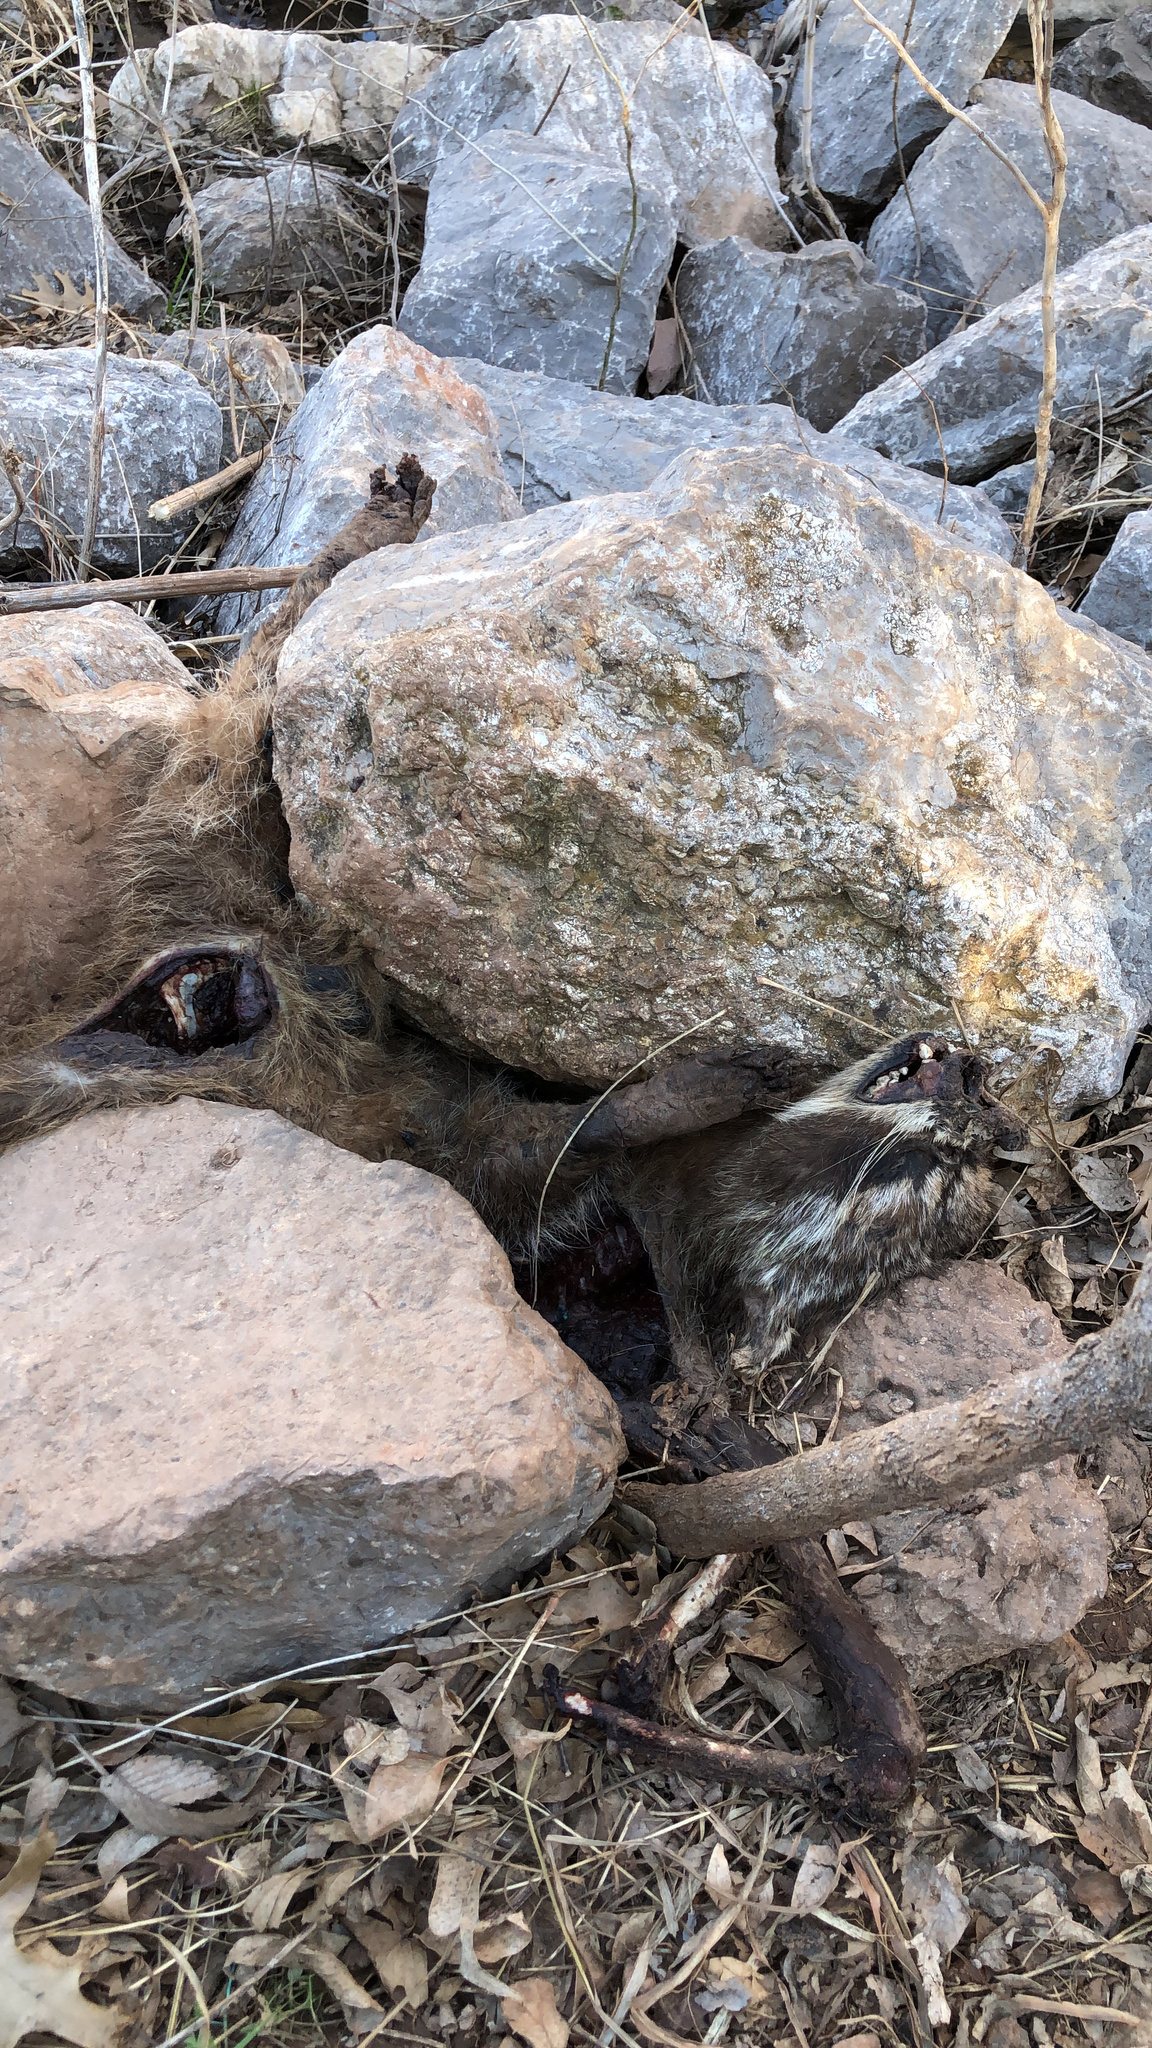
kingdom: Animalia
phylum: Chordata
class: Mammalia
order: Carnivora
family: Procyonidae
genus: Procyon
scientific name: Procyon lotor
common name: Raccoon
